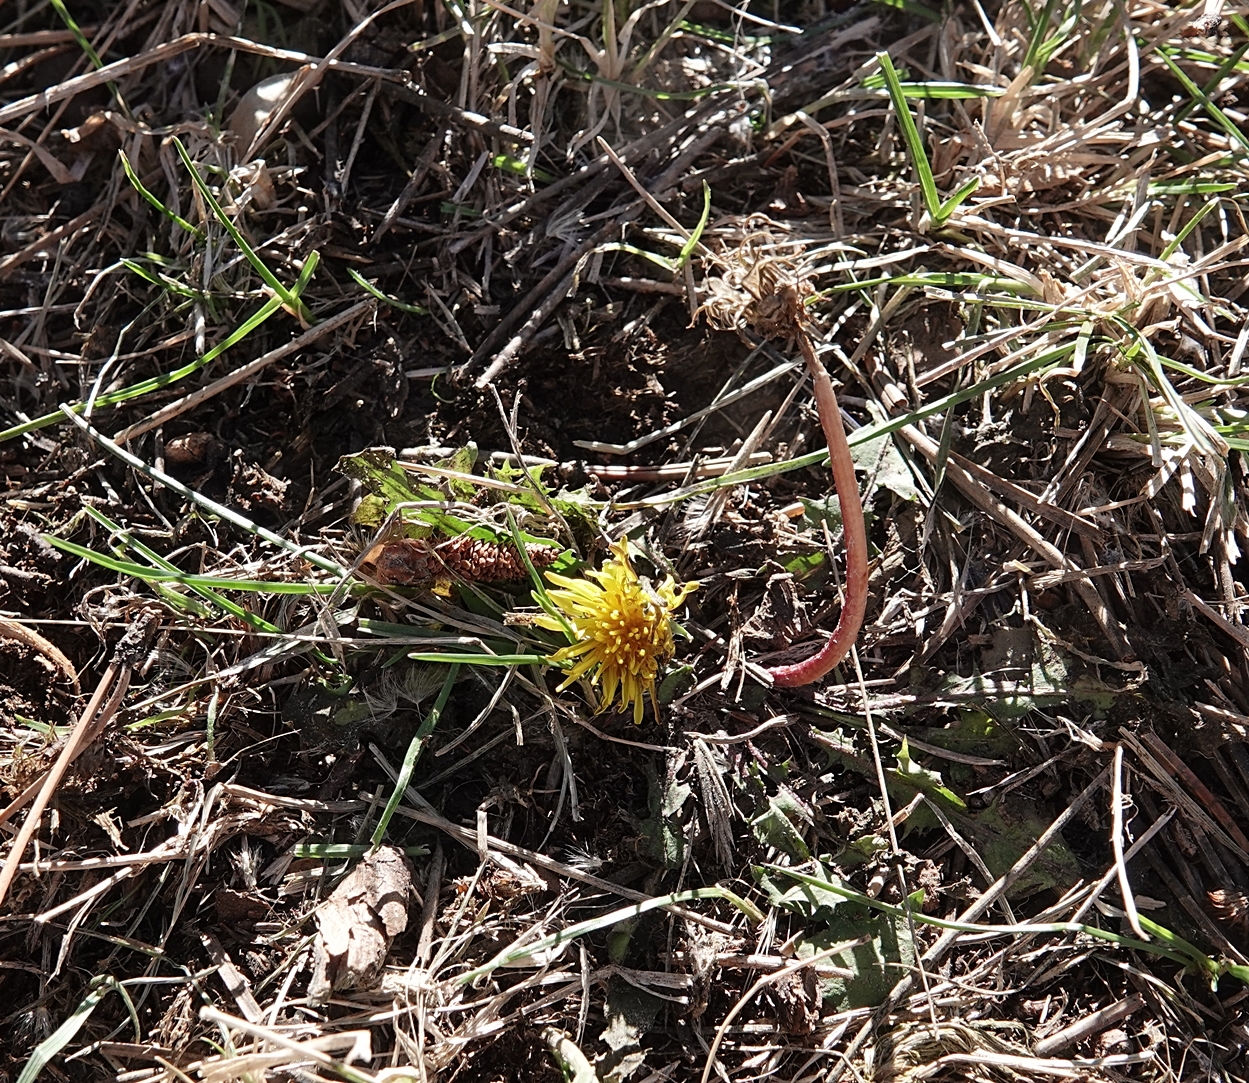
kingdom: Plantae
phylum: Tracheophyta
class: Magnoliopsida
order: Asterales
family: Asteraceae
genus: Taraxacum
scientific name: Taraxacum
